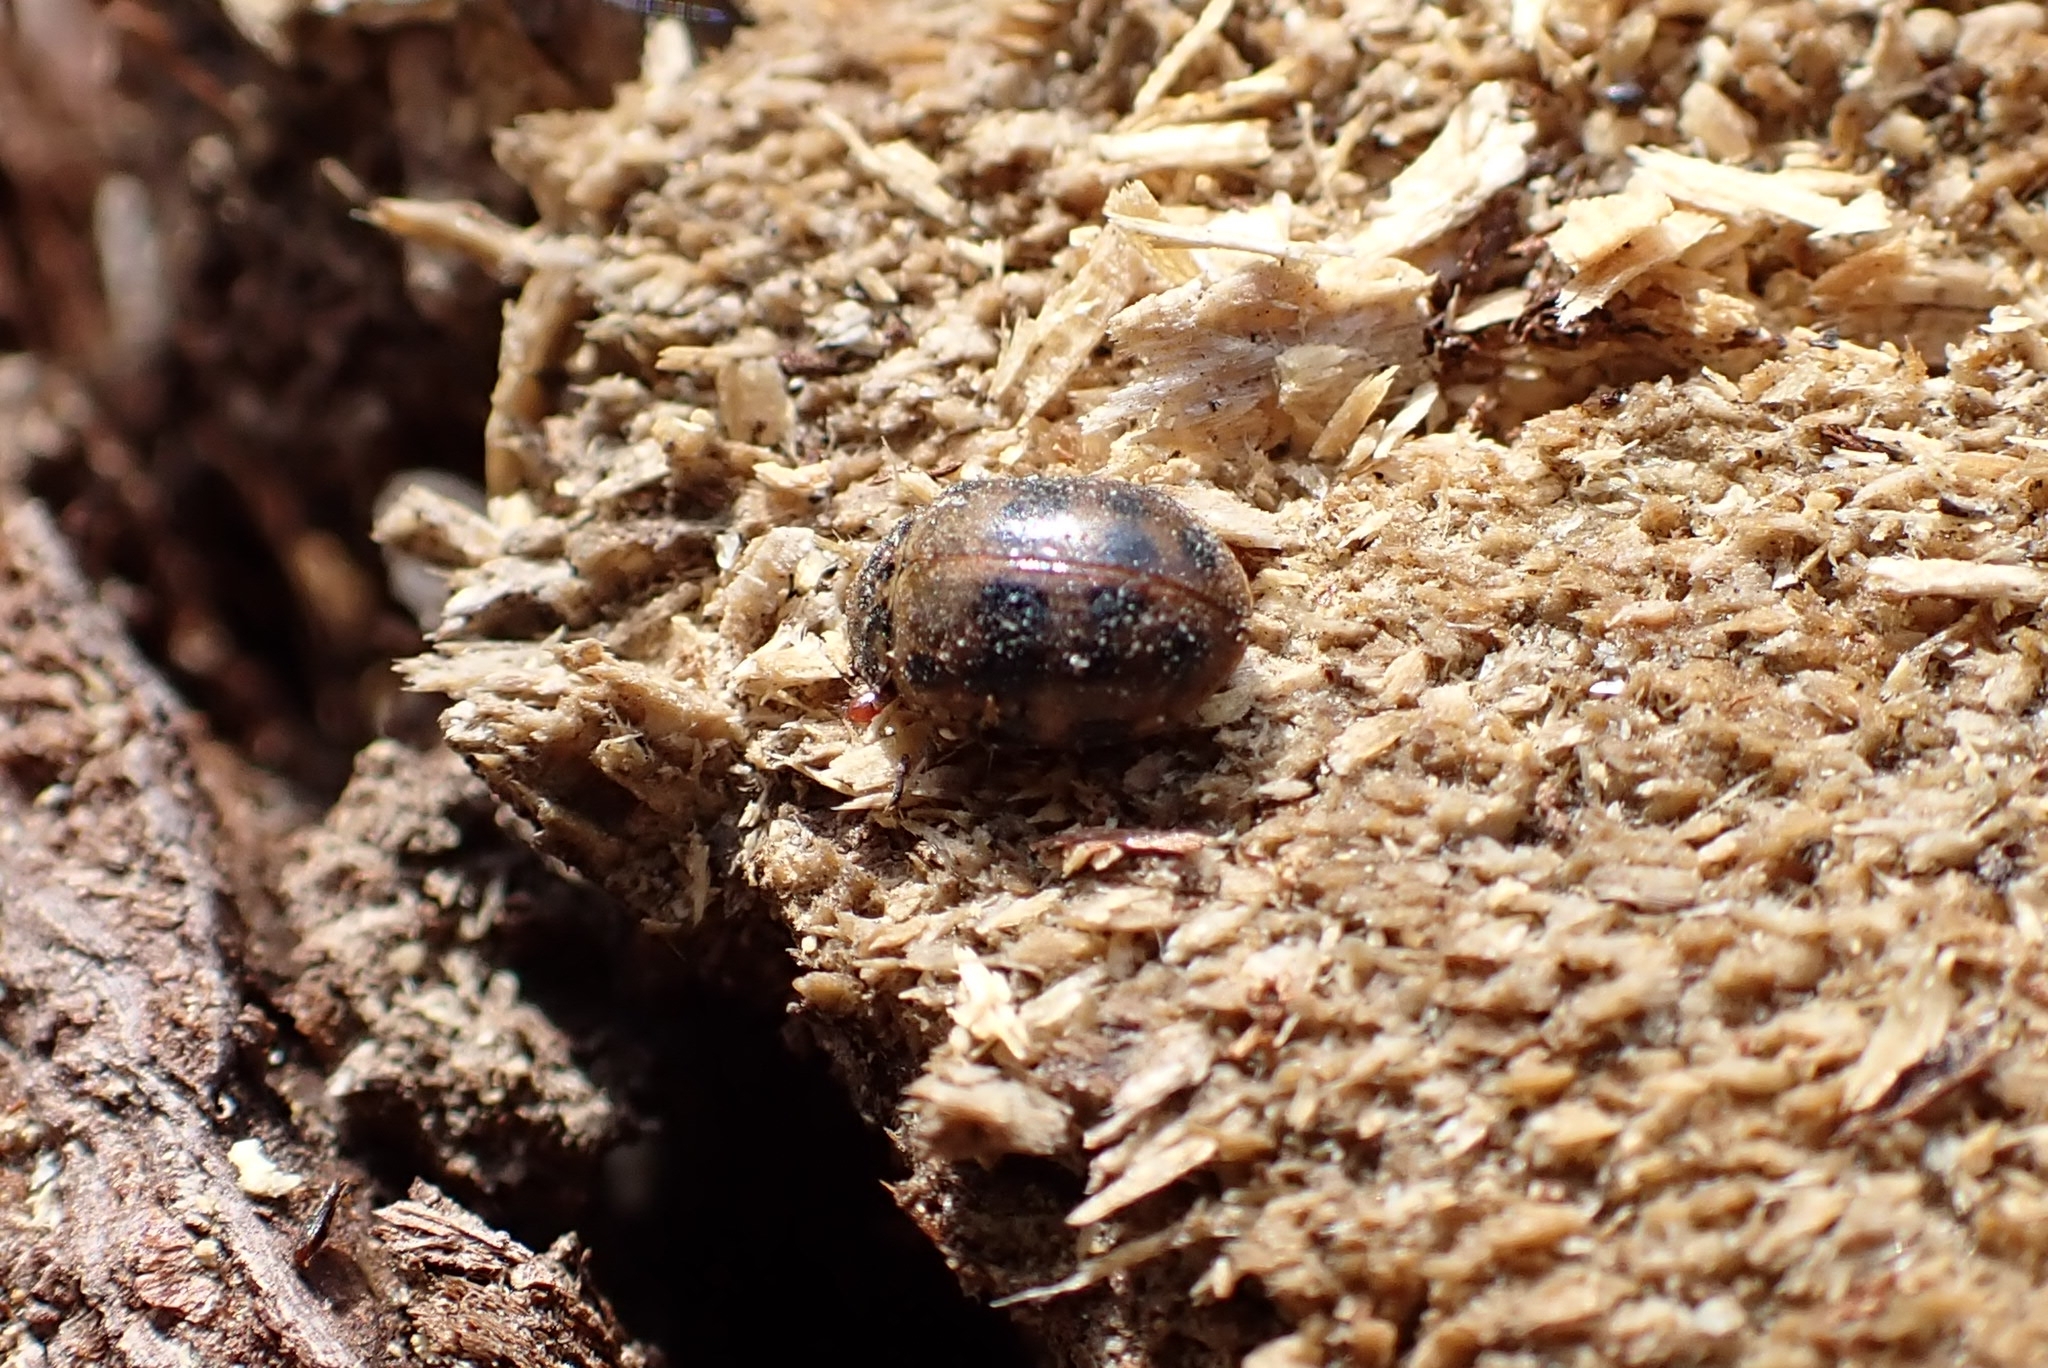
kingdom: Animalia
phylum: Arthropoda
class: Insecta
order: Coleoptera
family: Coccinellidae
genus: Harmonia
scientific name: Harmonia quadripunctata
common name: Cream-streaked ladybird
